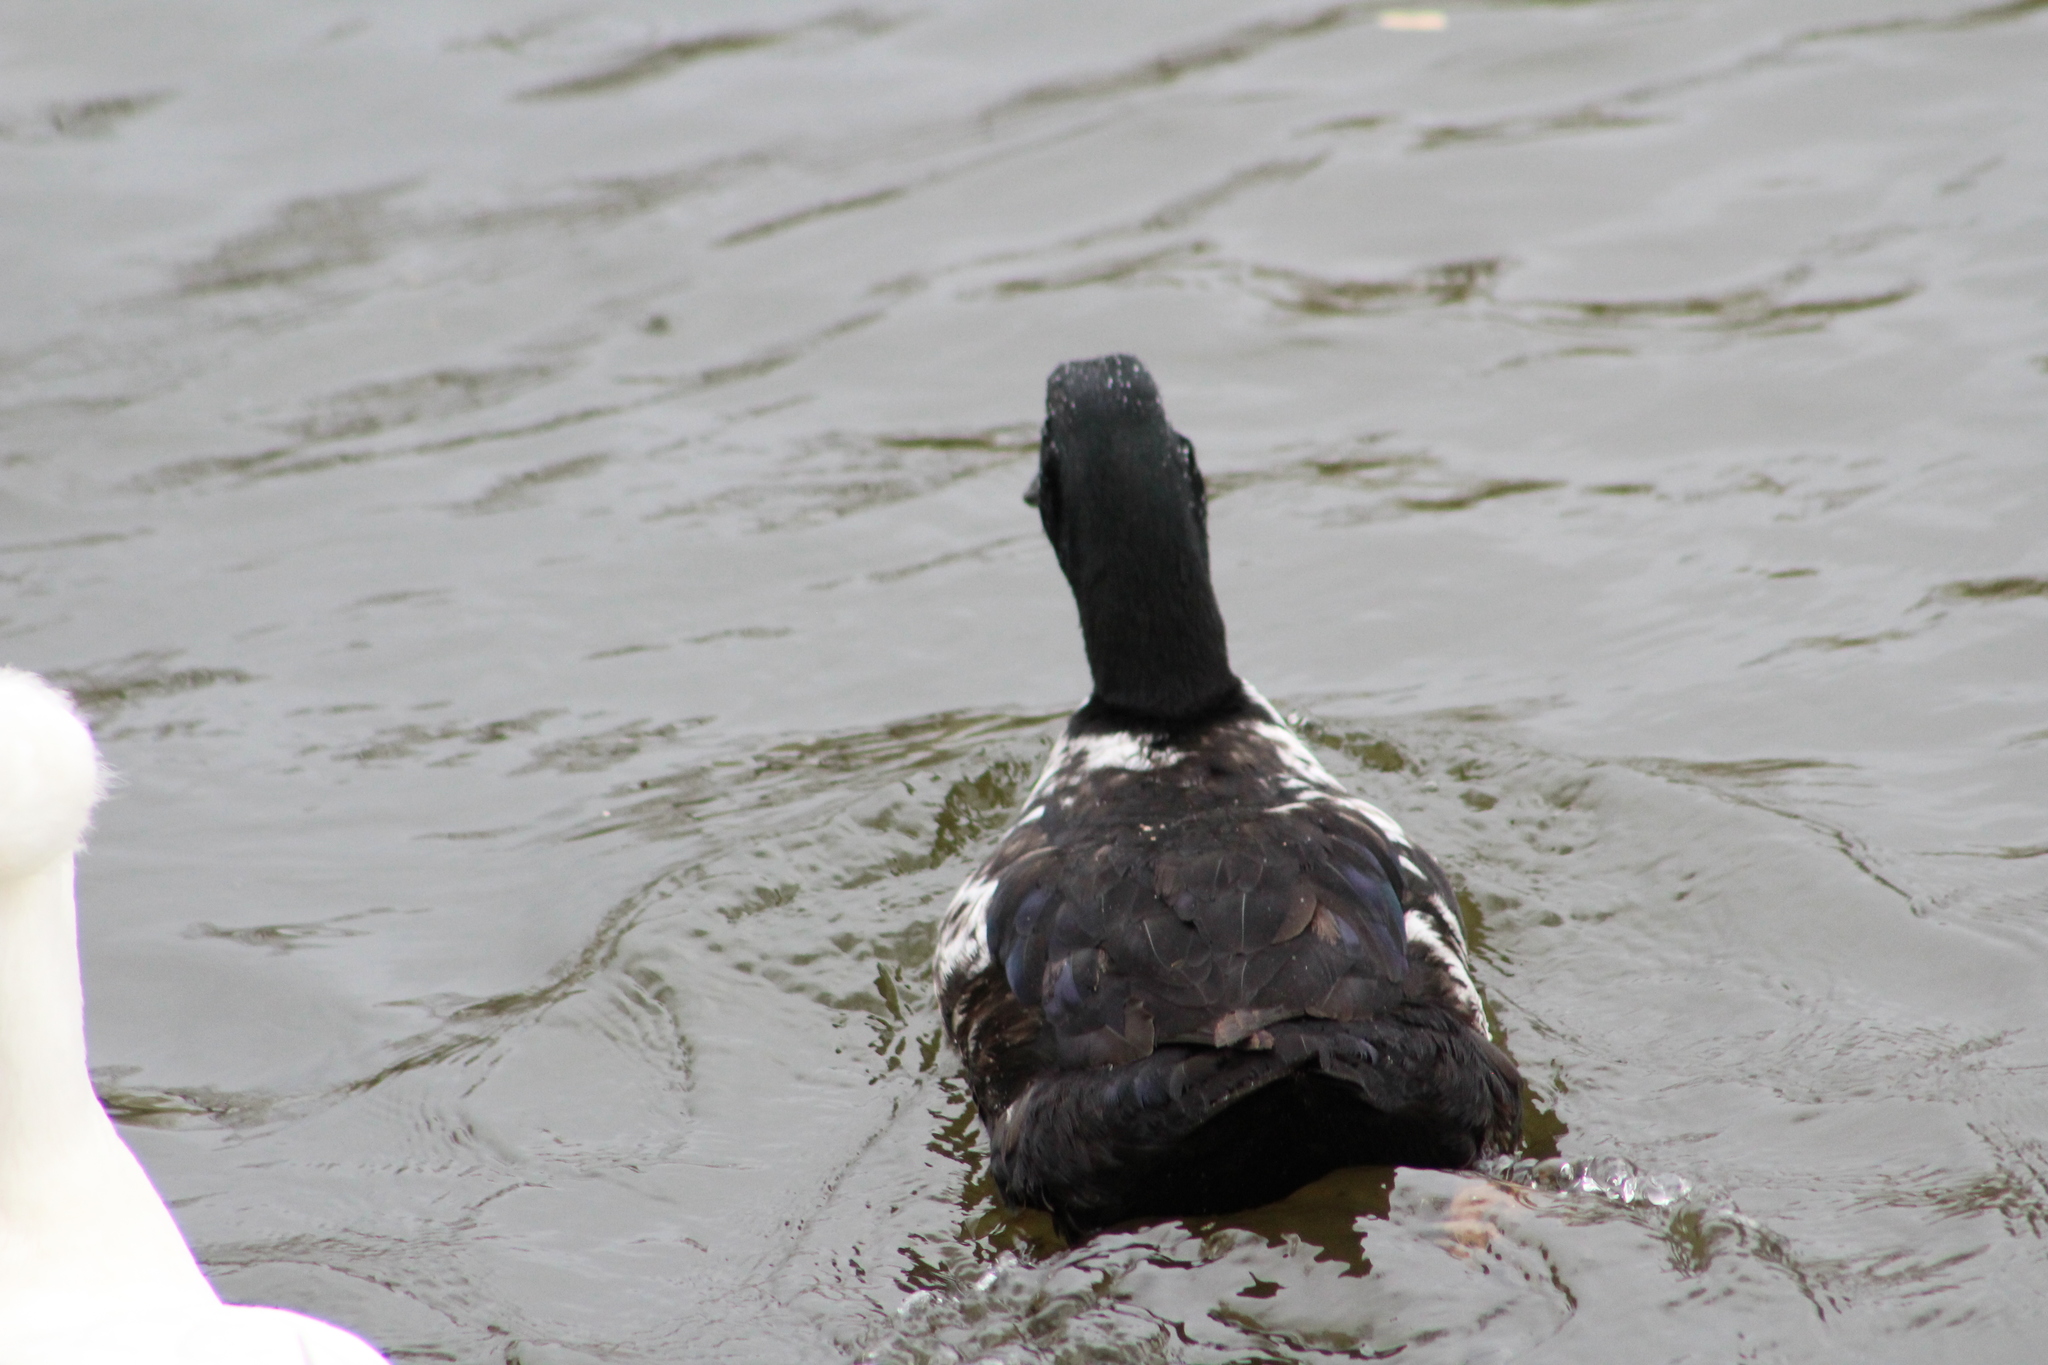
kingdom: Animalia
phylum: Chordata
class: Aves
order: Anseriformes
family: Anatidae
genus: Anas
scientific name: Anas platyrhynchos
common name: Mallard
